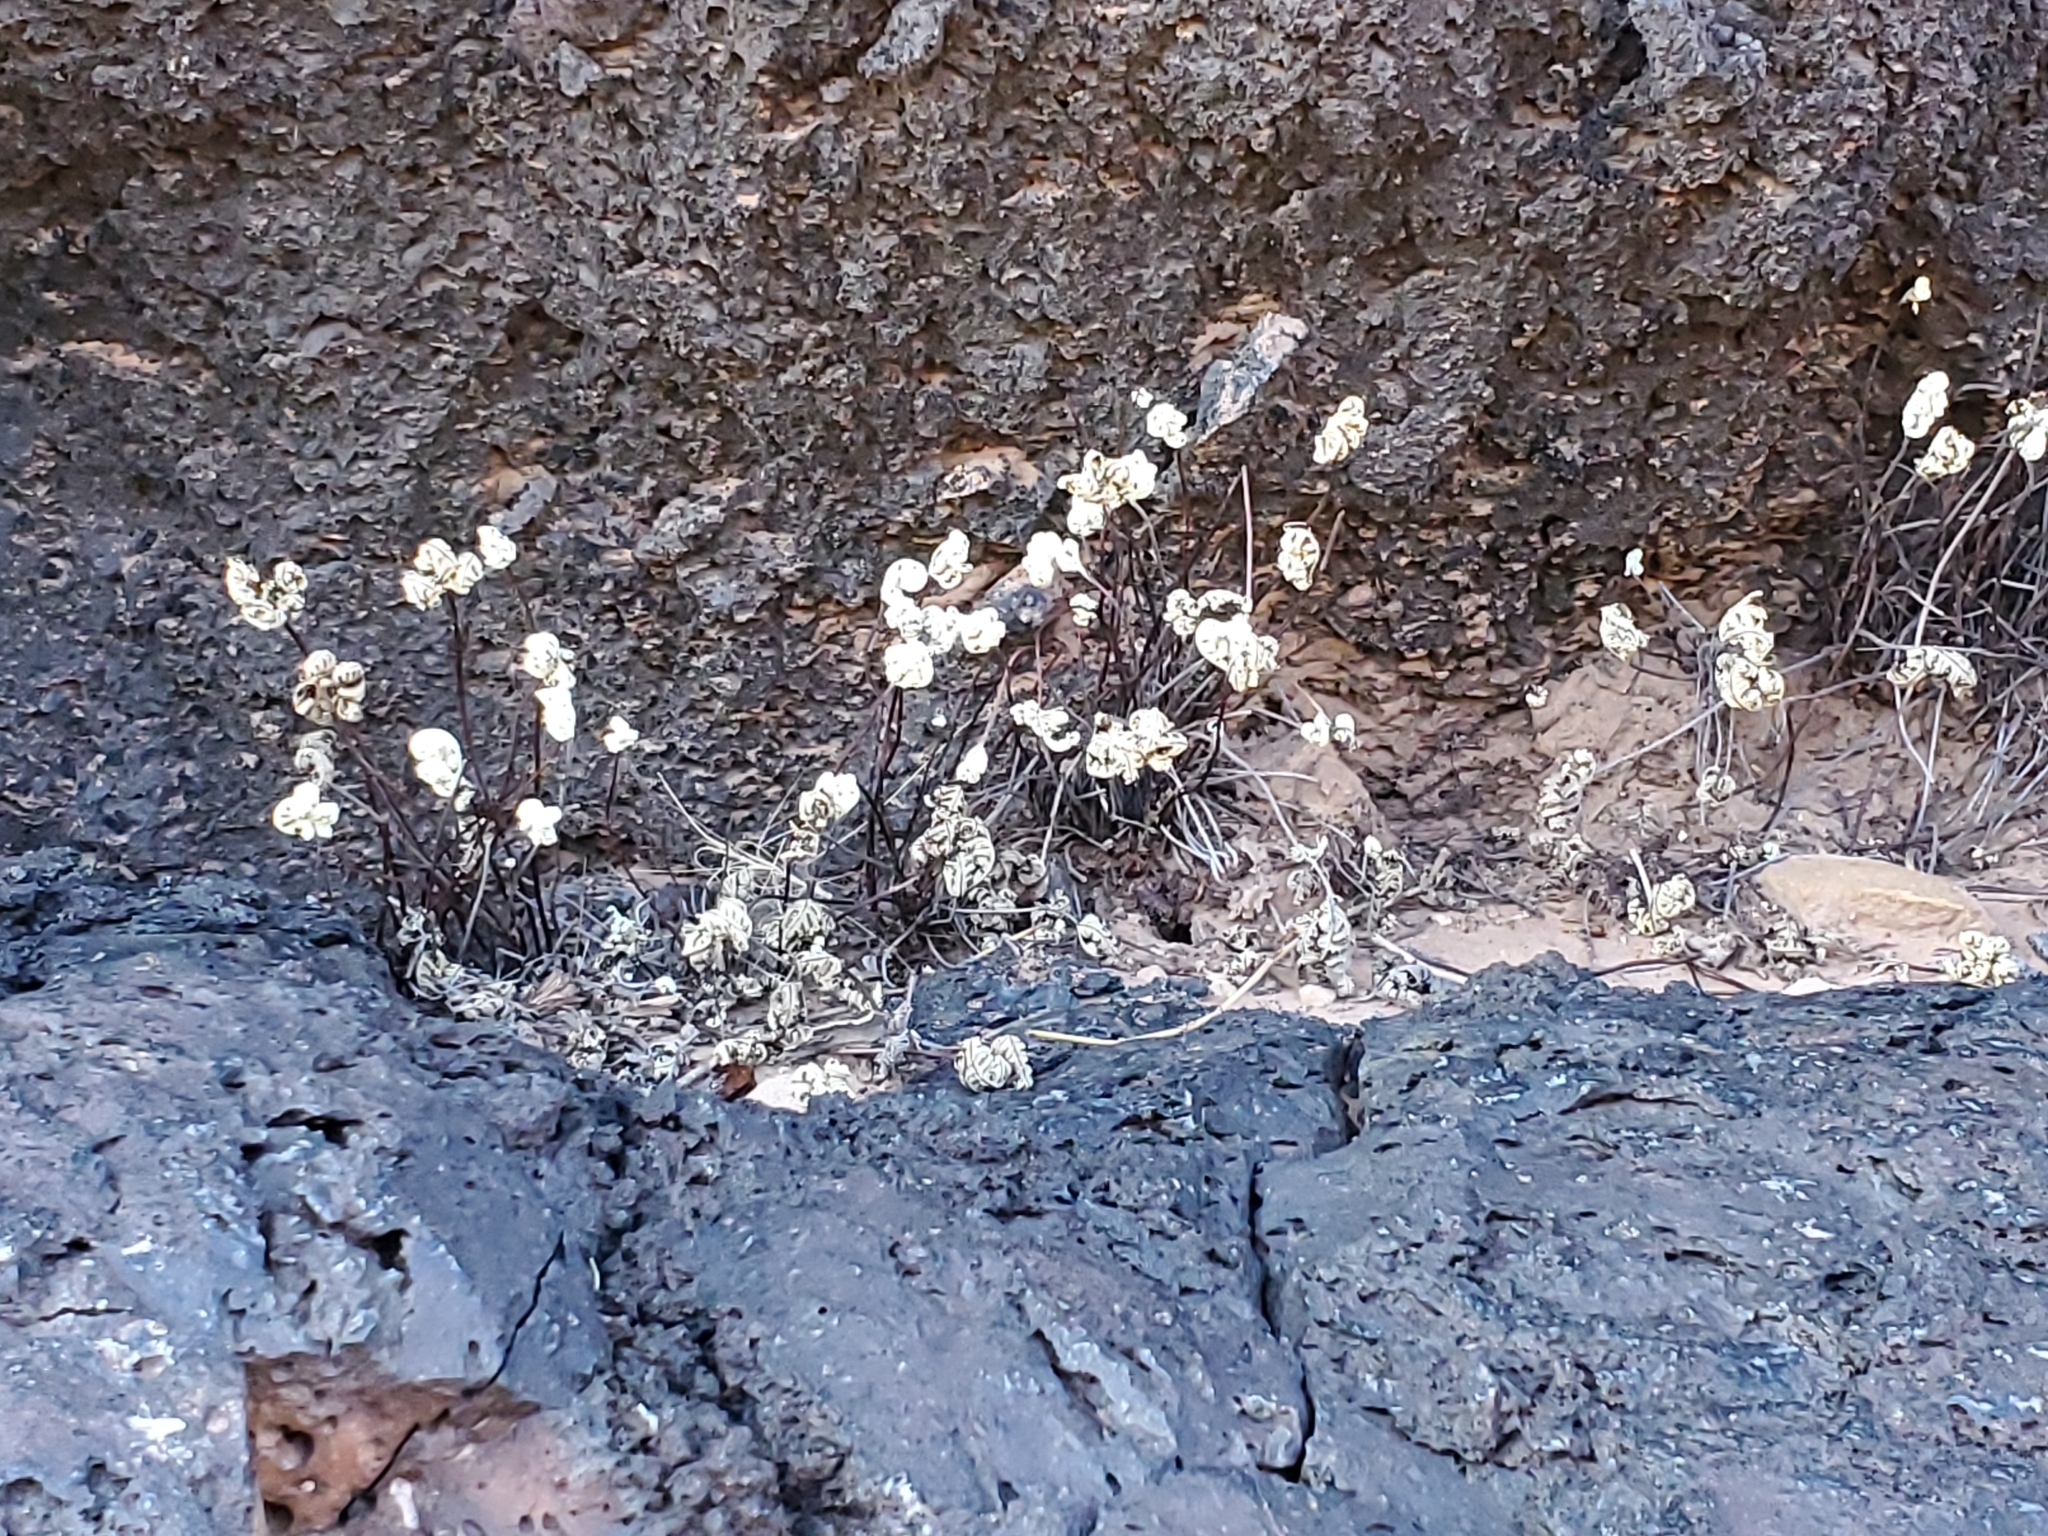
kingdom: Plantae
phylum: Tracheophyta
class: Polypodiopsida
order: Polypodiales
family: Pteridaceae
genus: Notholaena
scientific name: Notholaena standleyi
